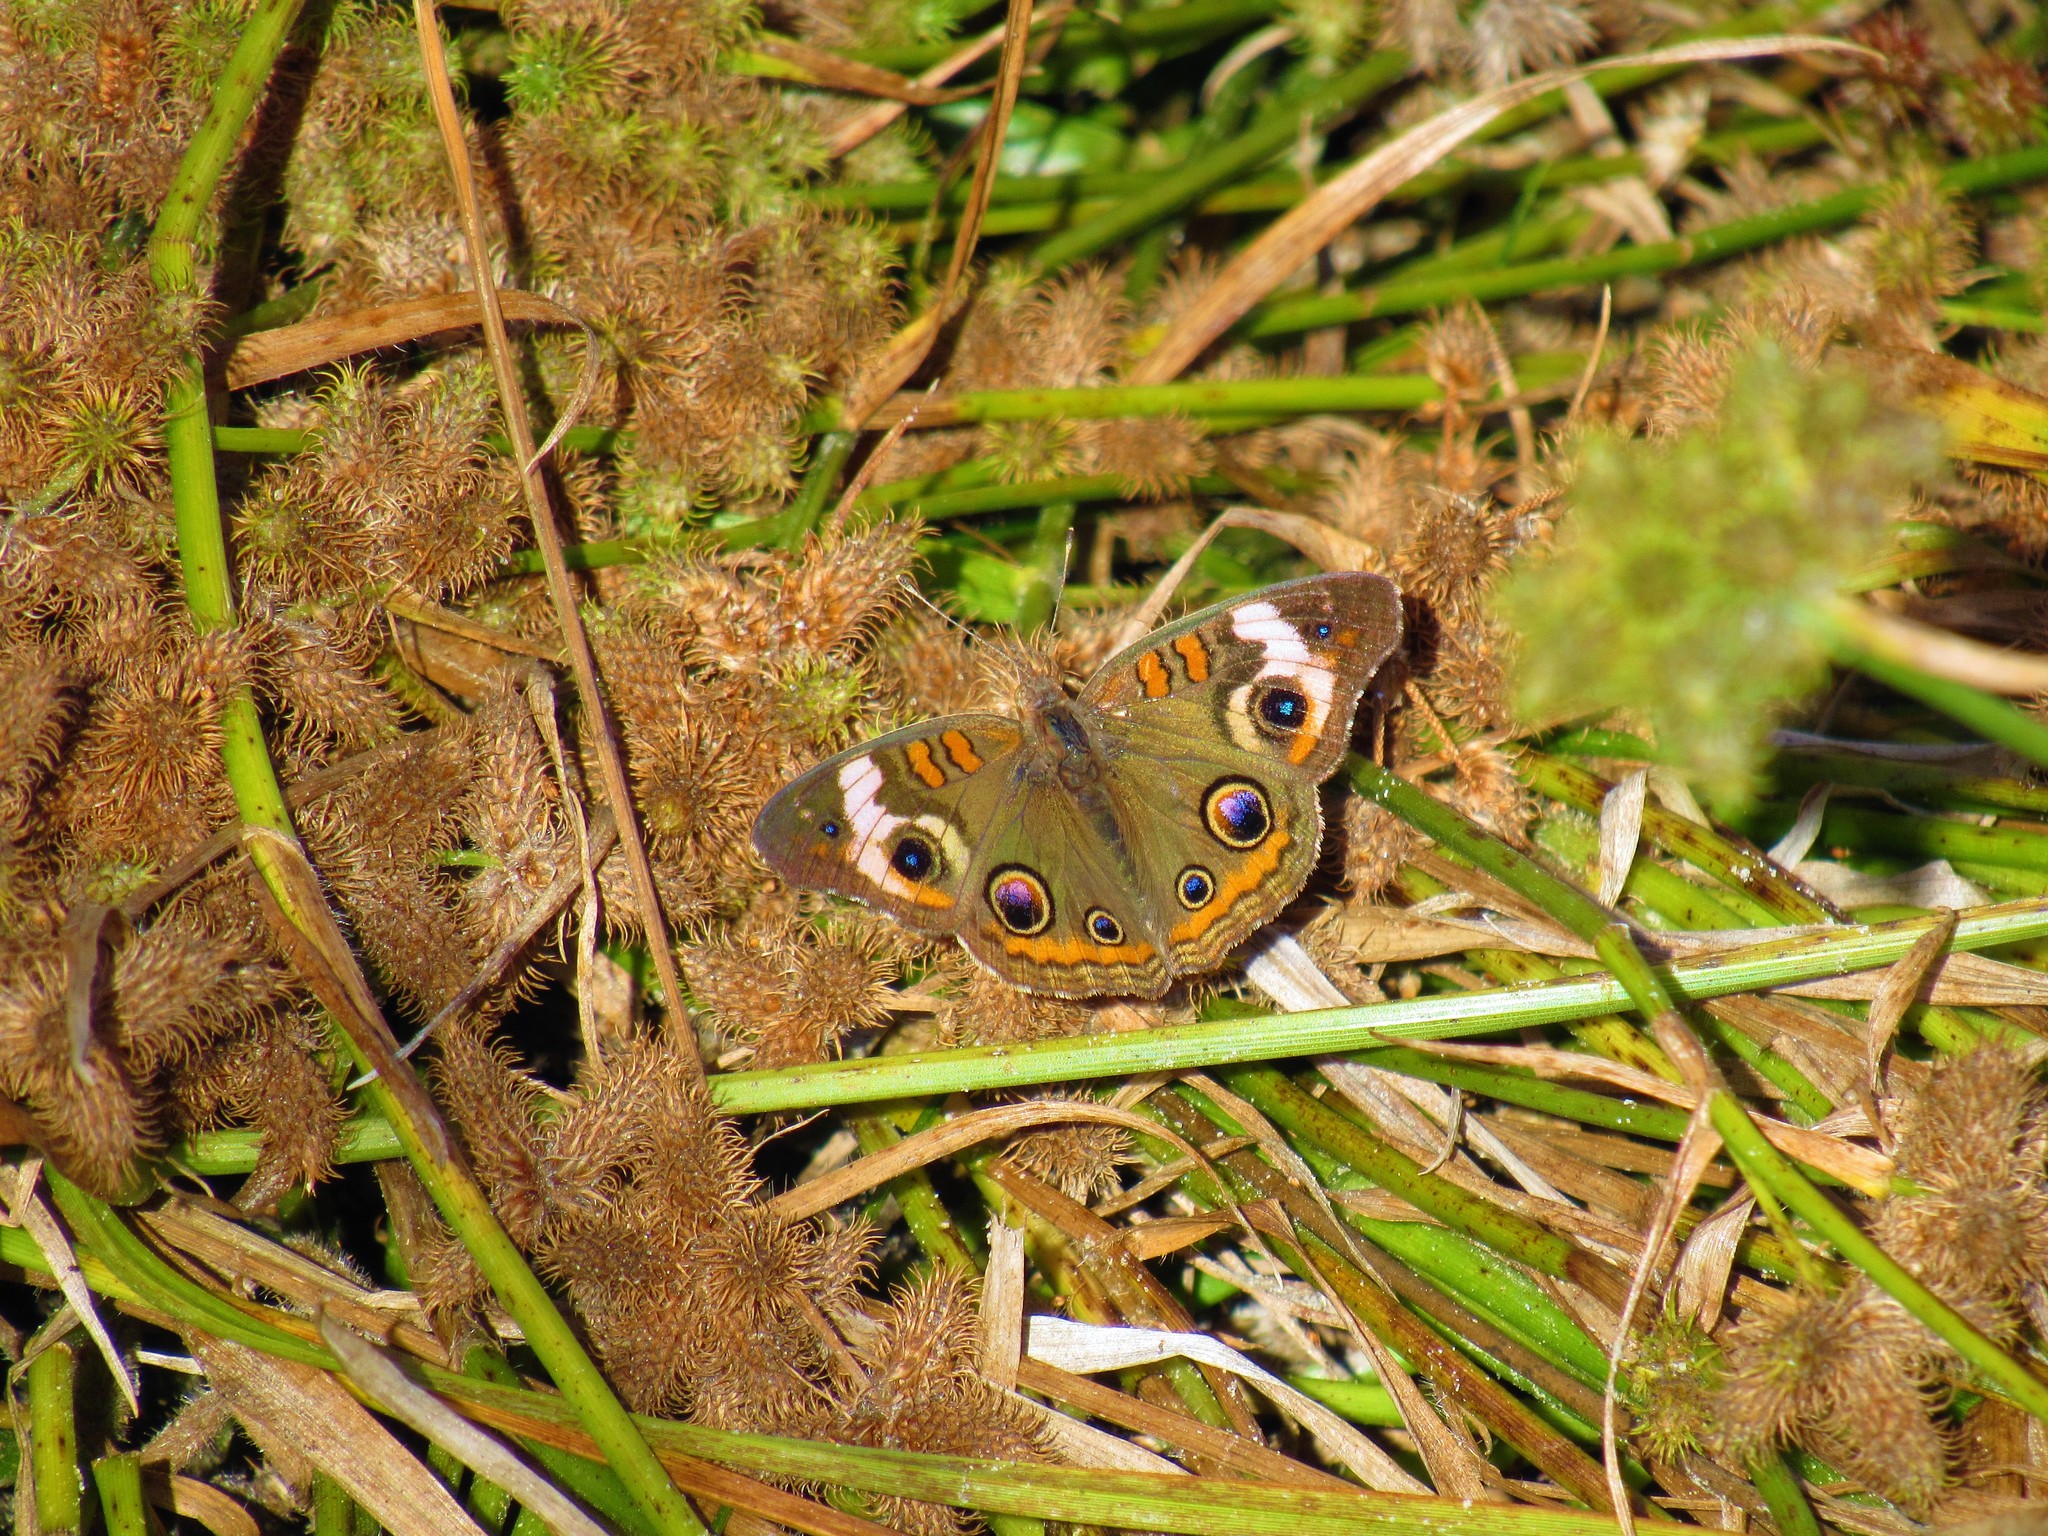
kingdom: Animalia
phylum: Arthropoda
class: Insecta
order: Lepidoptera
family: Nymphalidae
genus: Junonia
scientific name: Junonia coenia
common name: Common buckeye
